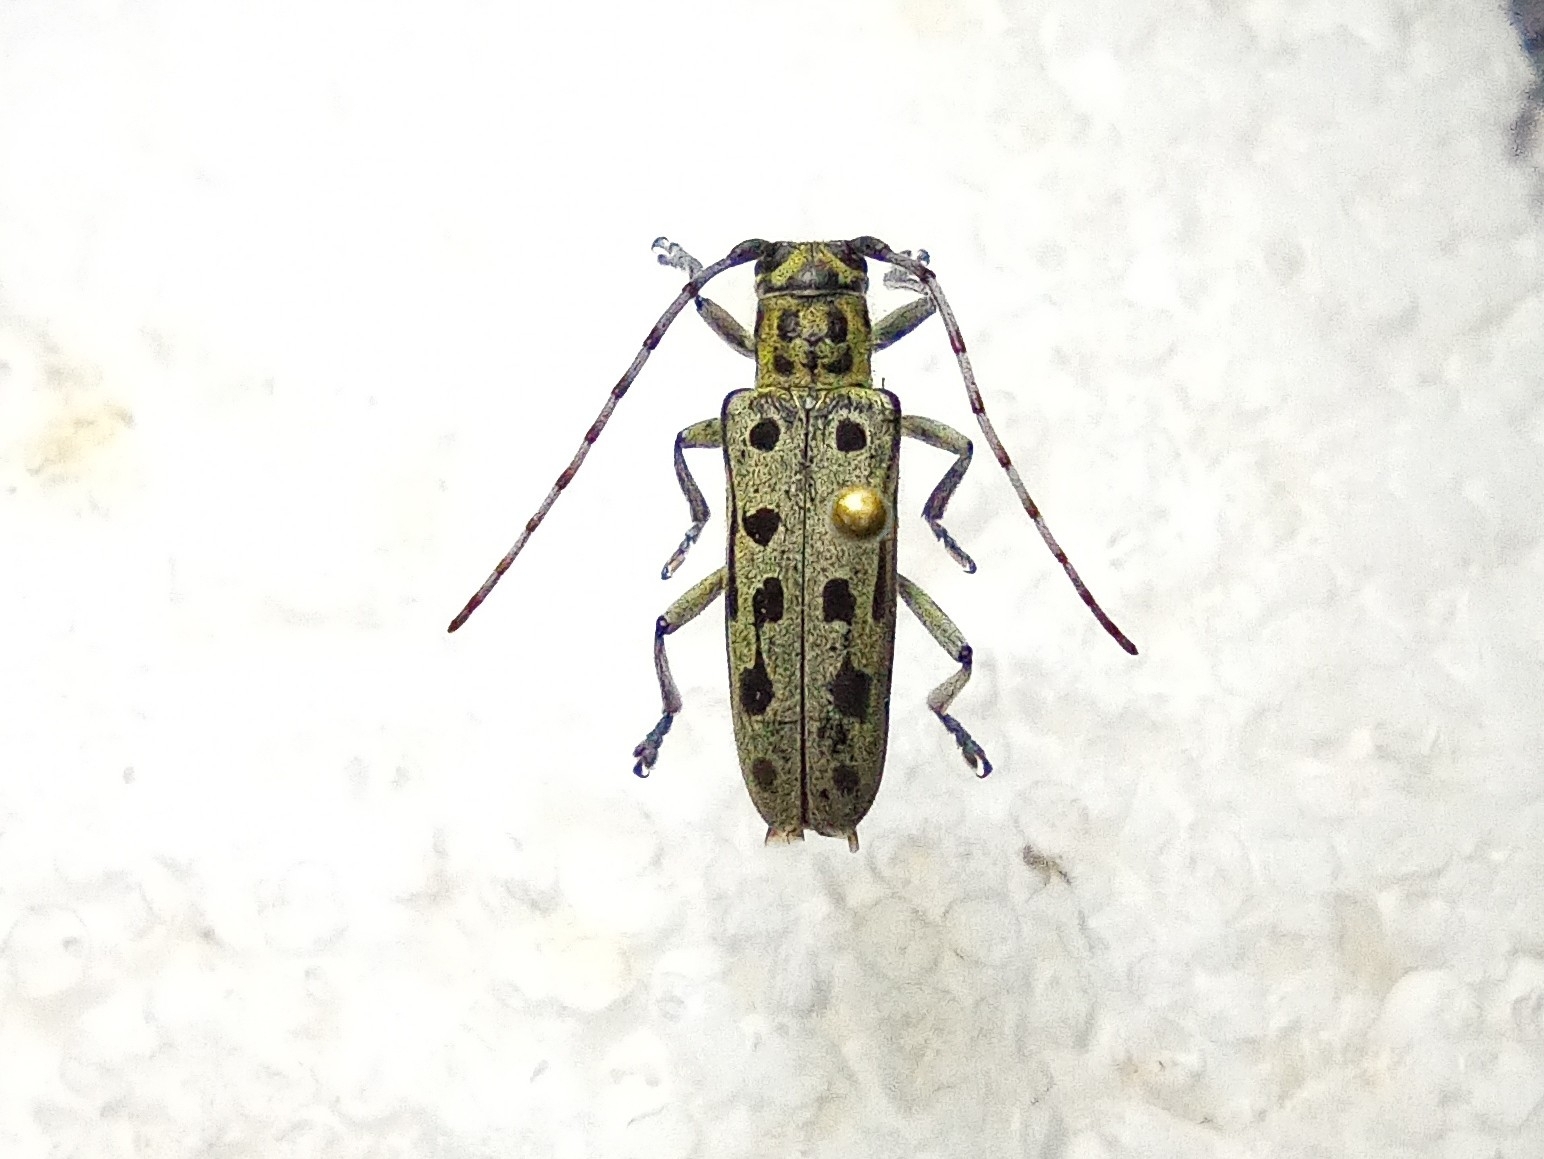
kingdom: Animalia
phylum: Arthropoda
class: Insecta
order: Coleoptera
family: Cerambycidae
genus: Saperda
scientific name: Saperda perforata
